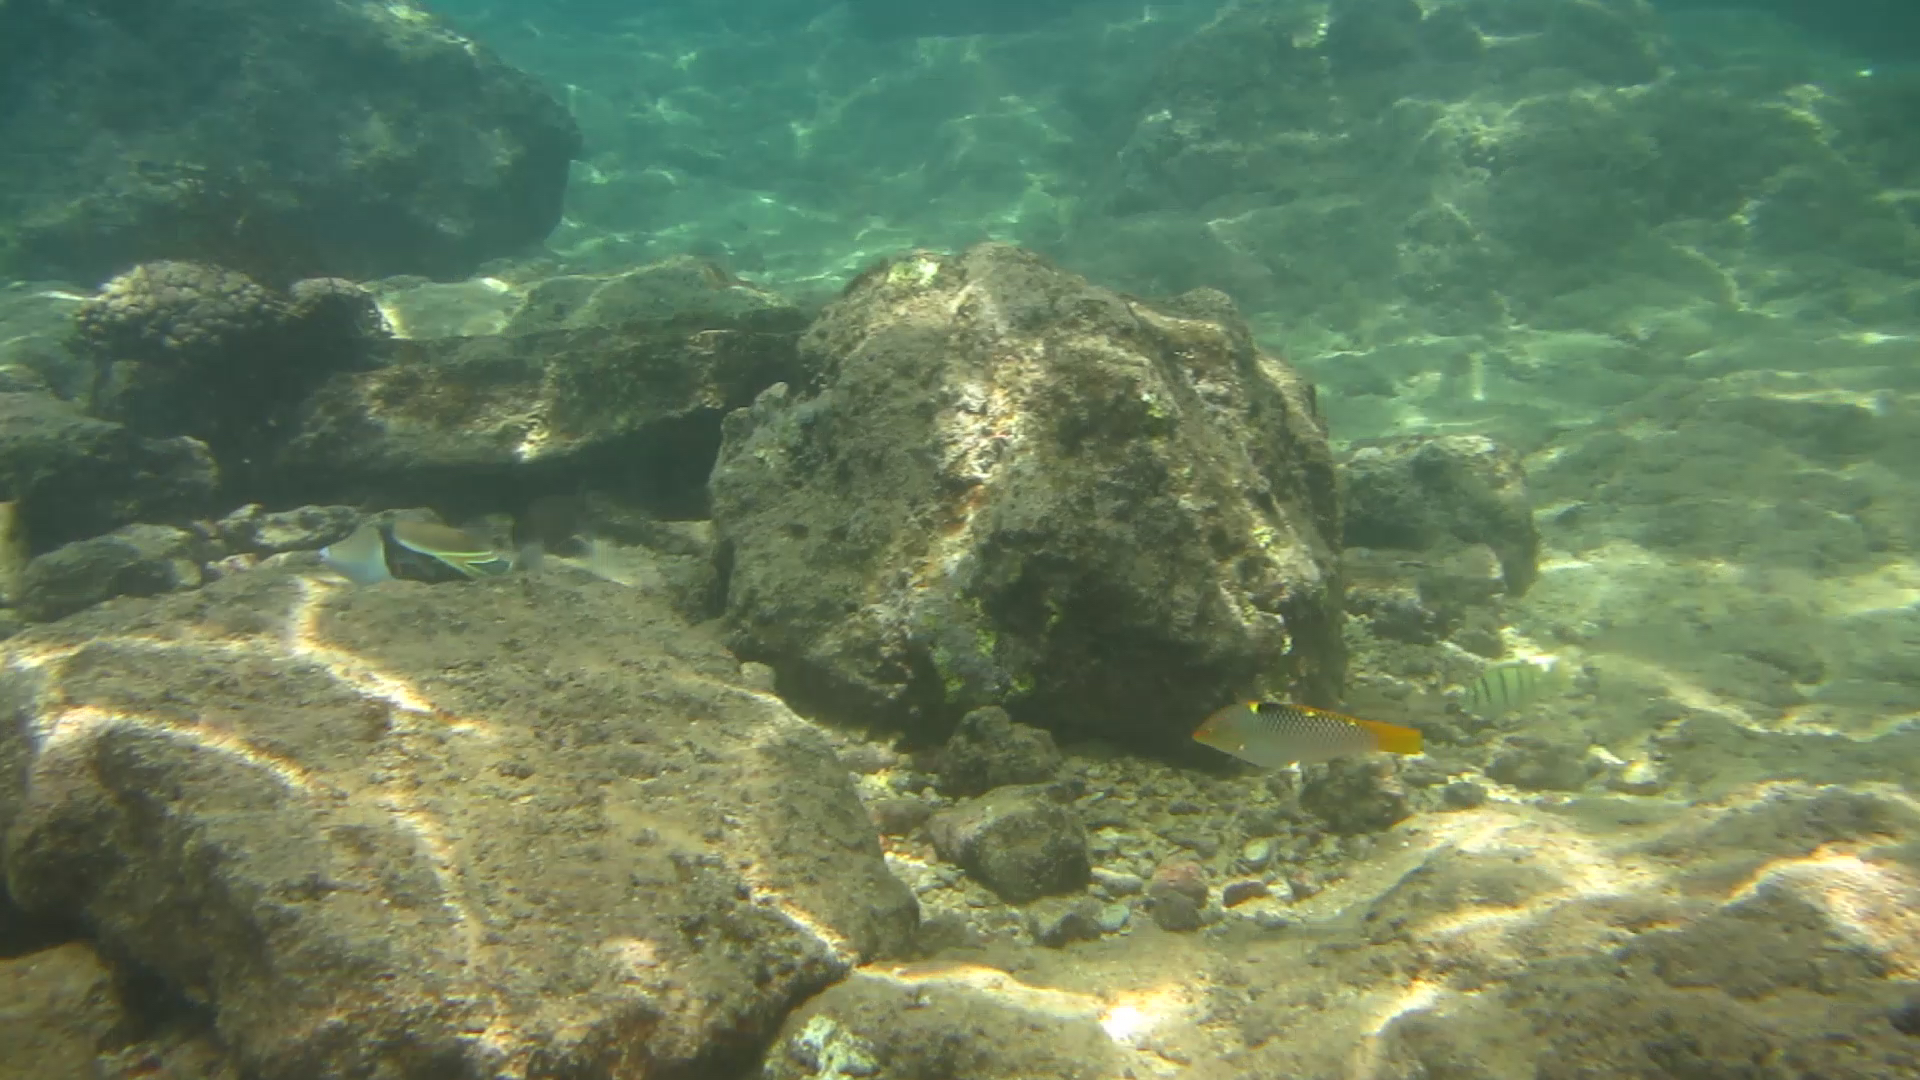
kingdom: Animalia
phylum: Chordata
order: Perciformes
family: Labridae
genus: Halichoeres
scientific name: Halichoeres hortulanus
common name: Checkerboard wrasse
